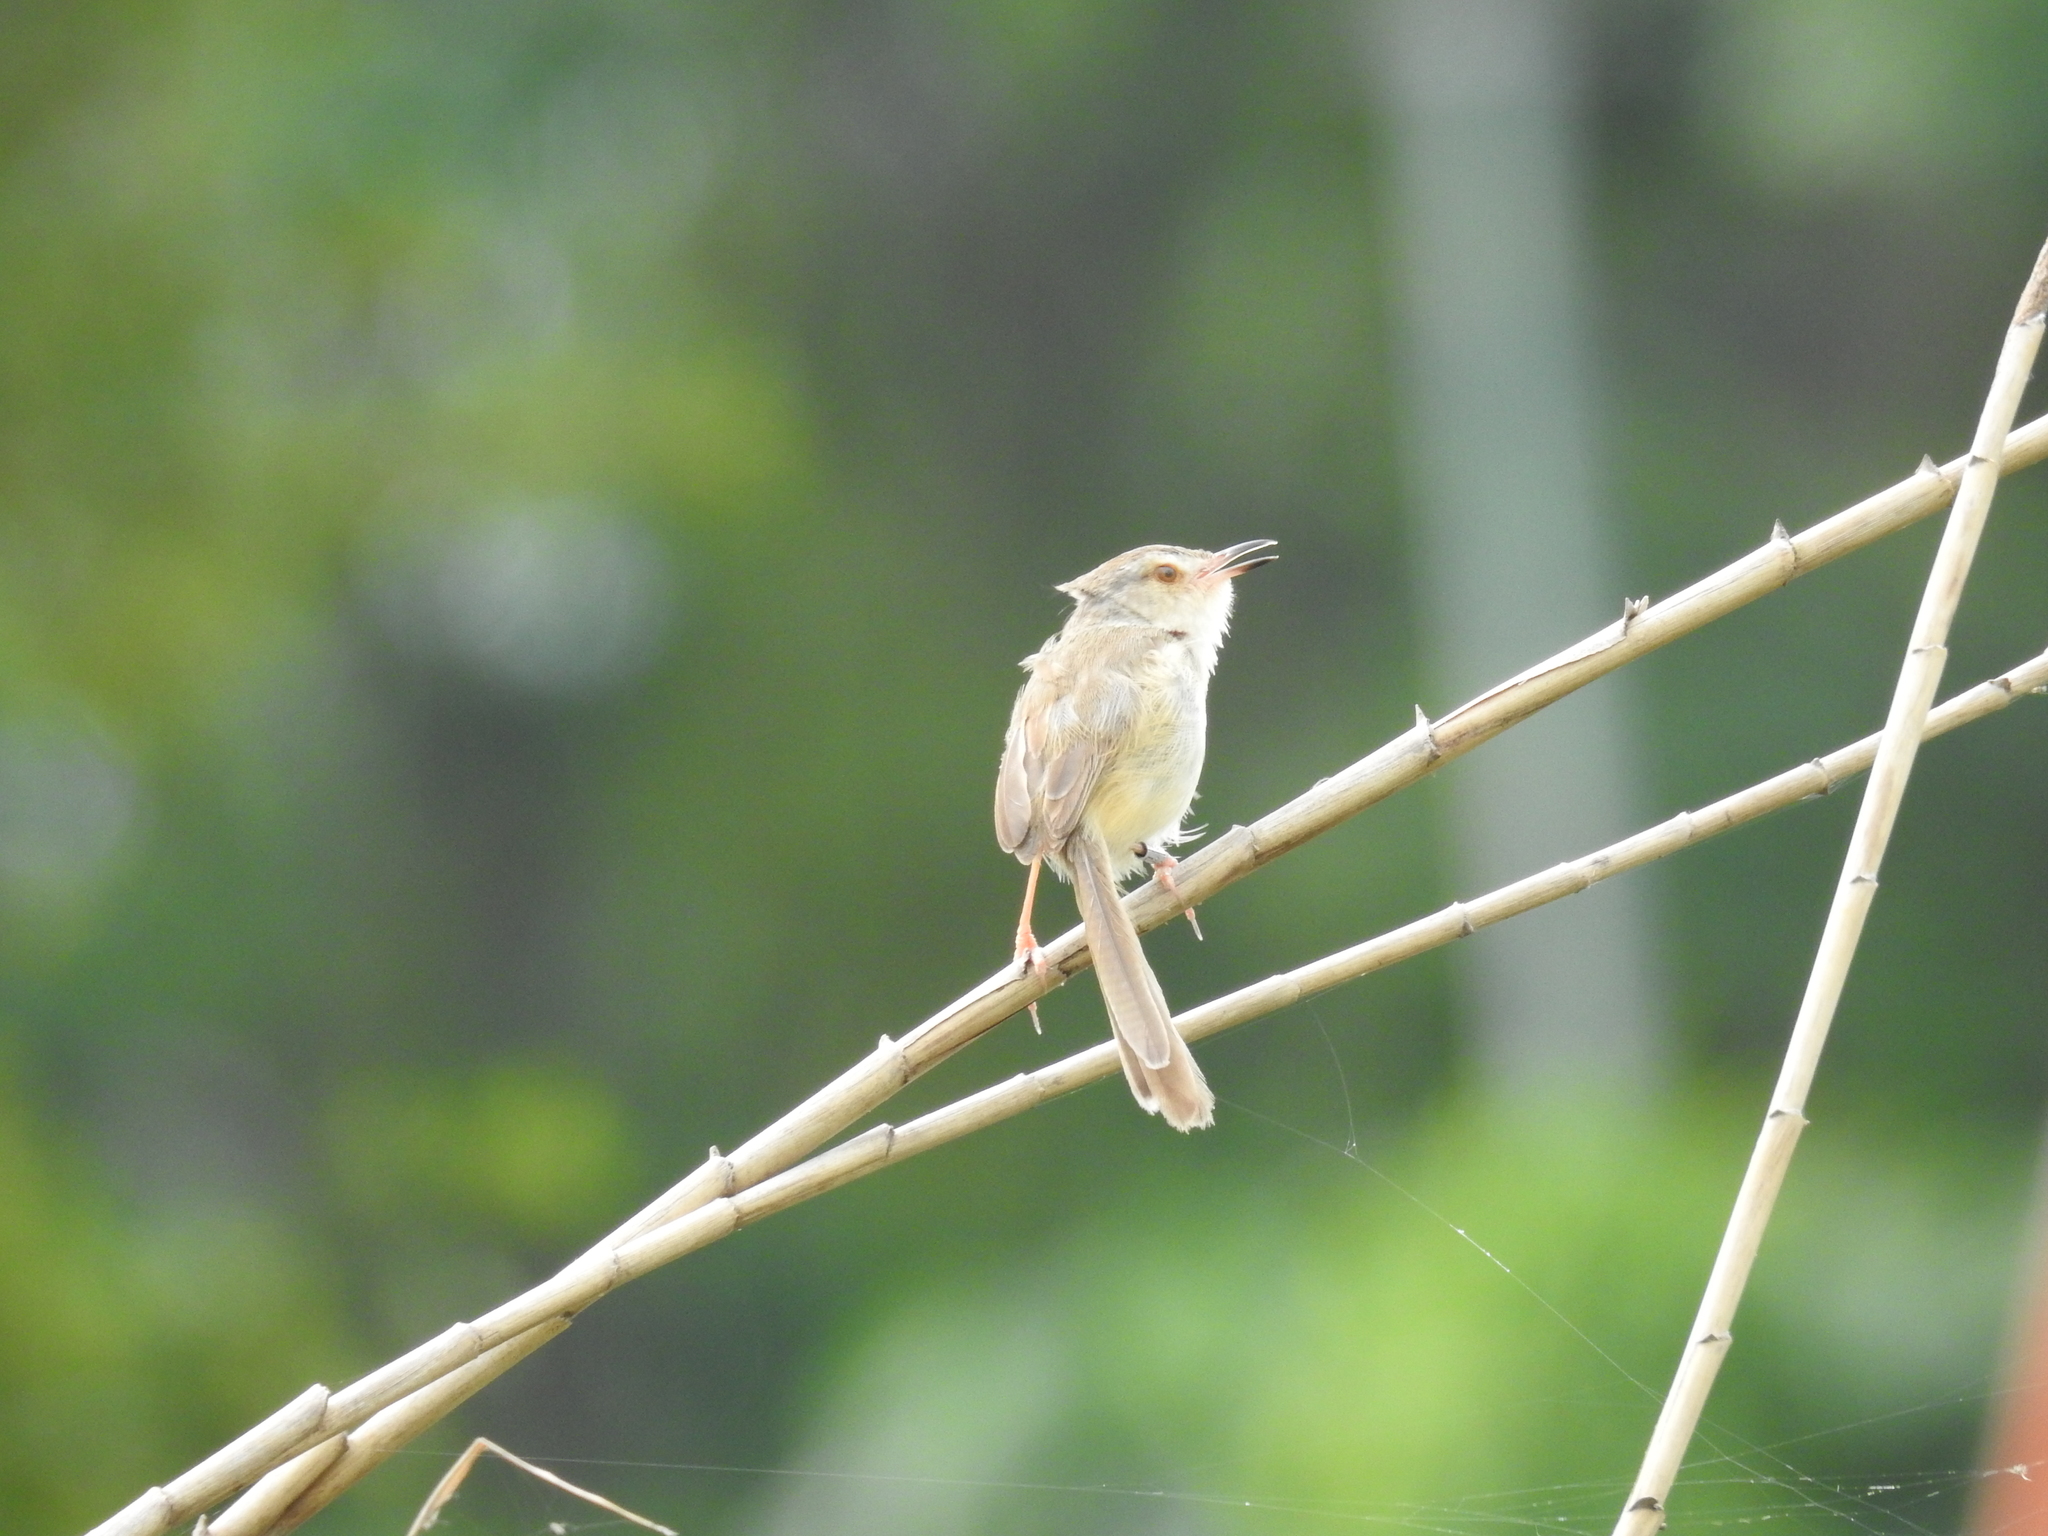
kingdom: Animalia
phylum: Chordata
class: Aves
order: Passeriformes
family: Cisticolidae
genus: Prinia
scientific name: Prinia inornata
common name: Plain prinia
